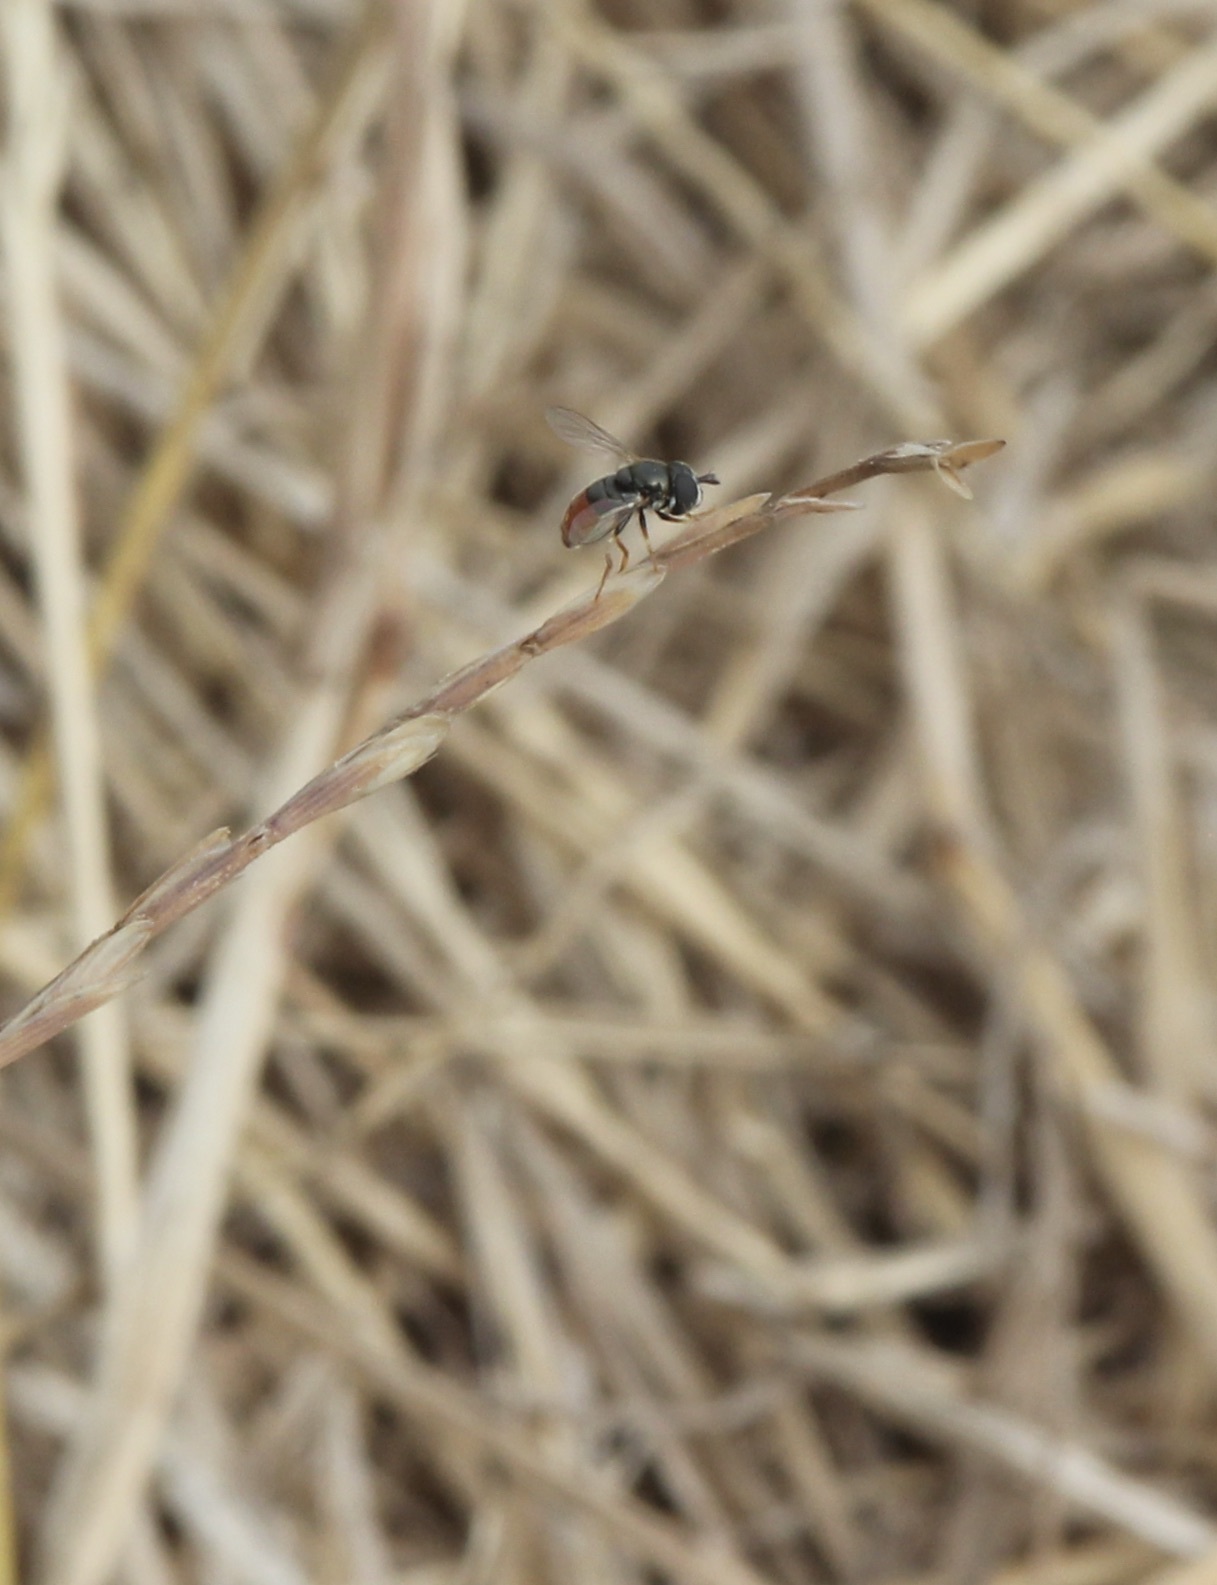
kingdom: Animalia
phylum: Arthropoda
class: Insecta
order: Diptera
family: Syrphidae
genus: Paragus
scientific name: Paragus haemorrhous
